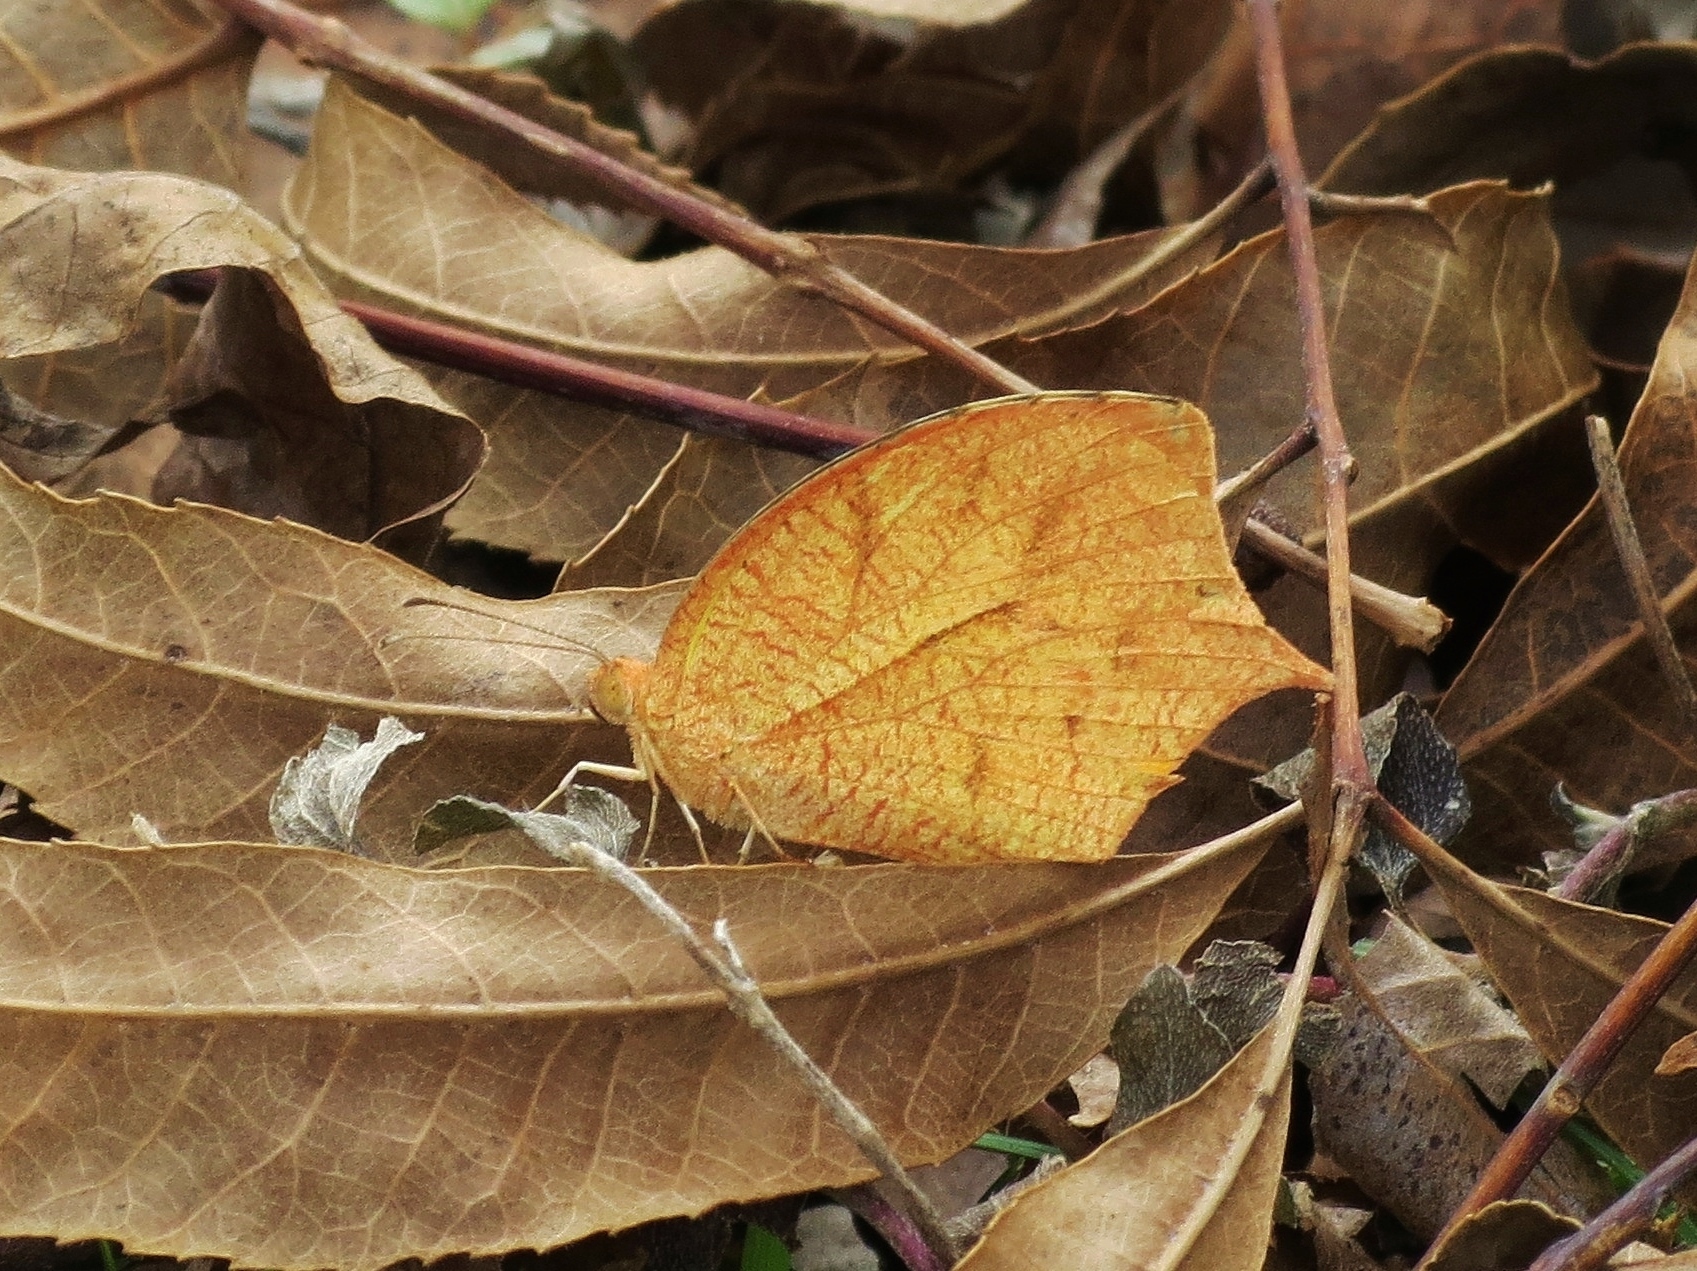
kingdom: Animalia
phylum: Arthropoda
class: Insecta
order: Lepidoptera
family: Pieridae
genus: Pyrisitia
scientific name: Pyrisitia proterpia
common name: Tailed orange
